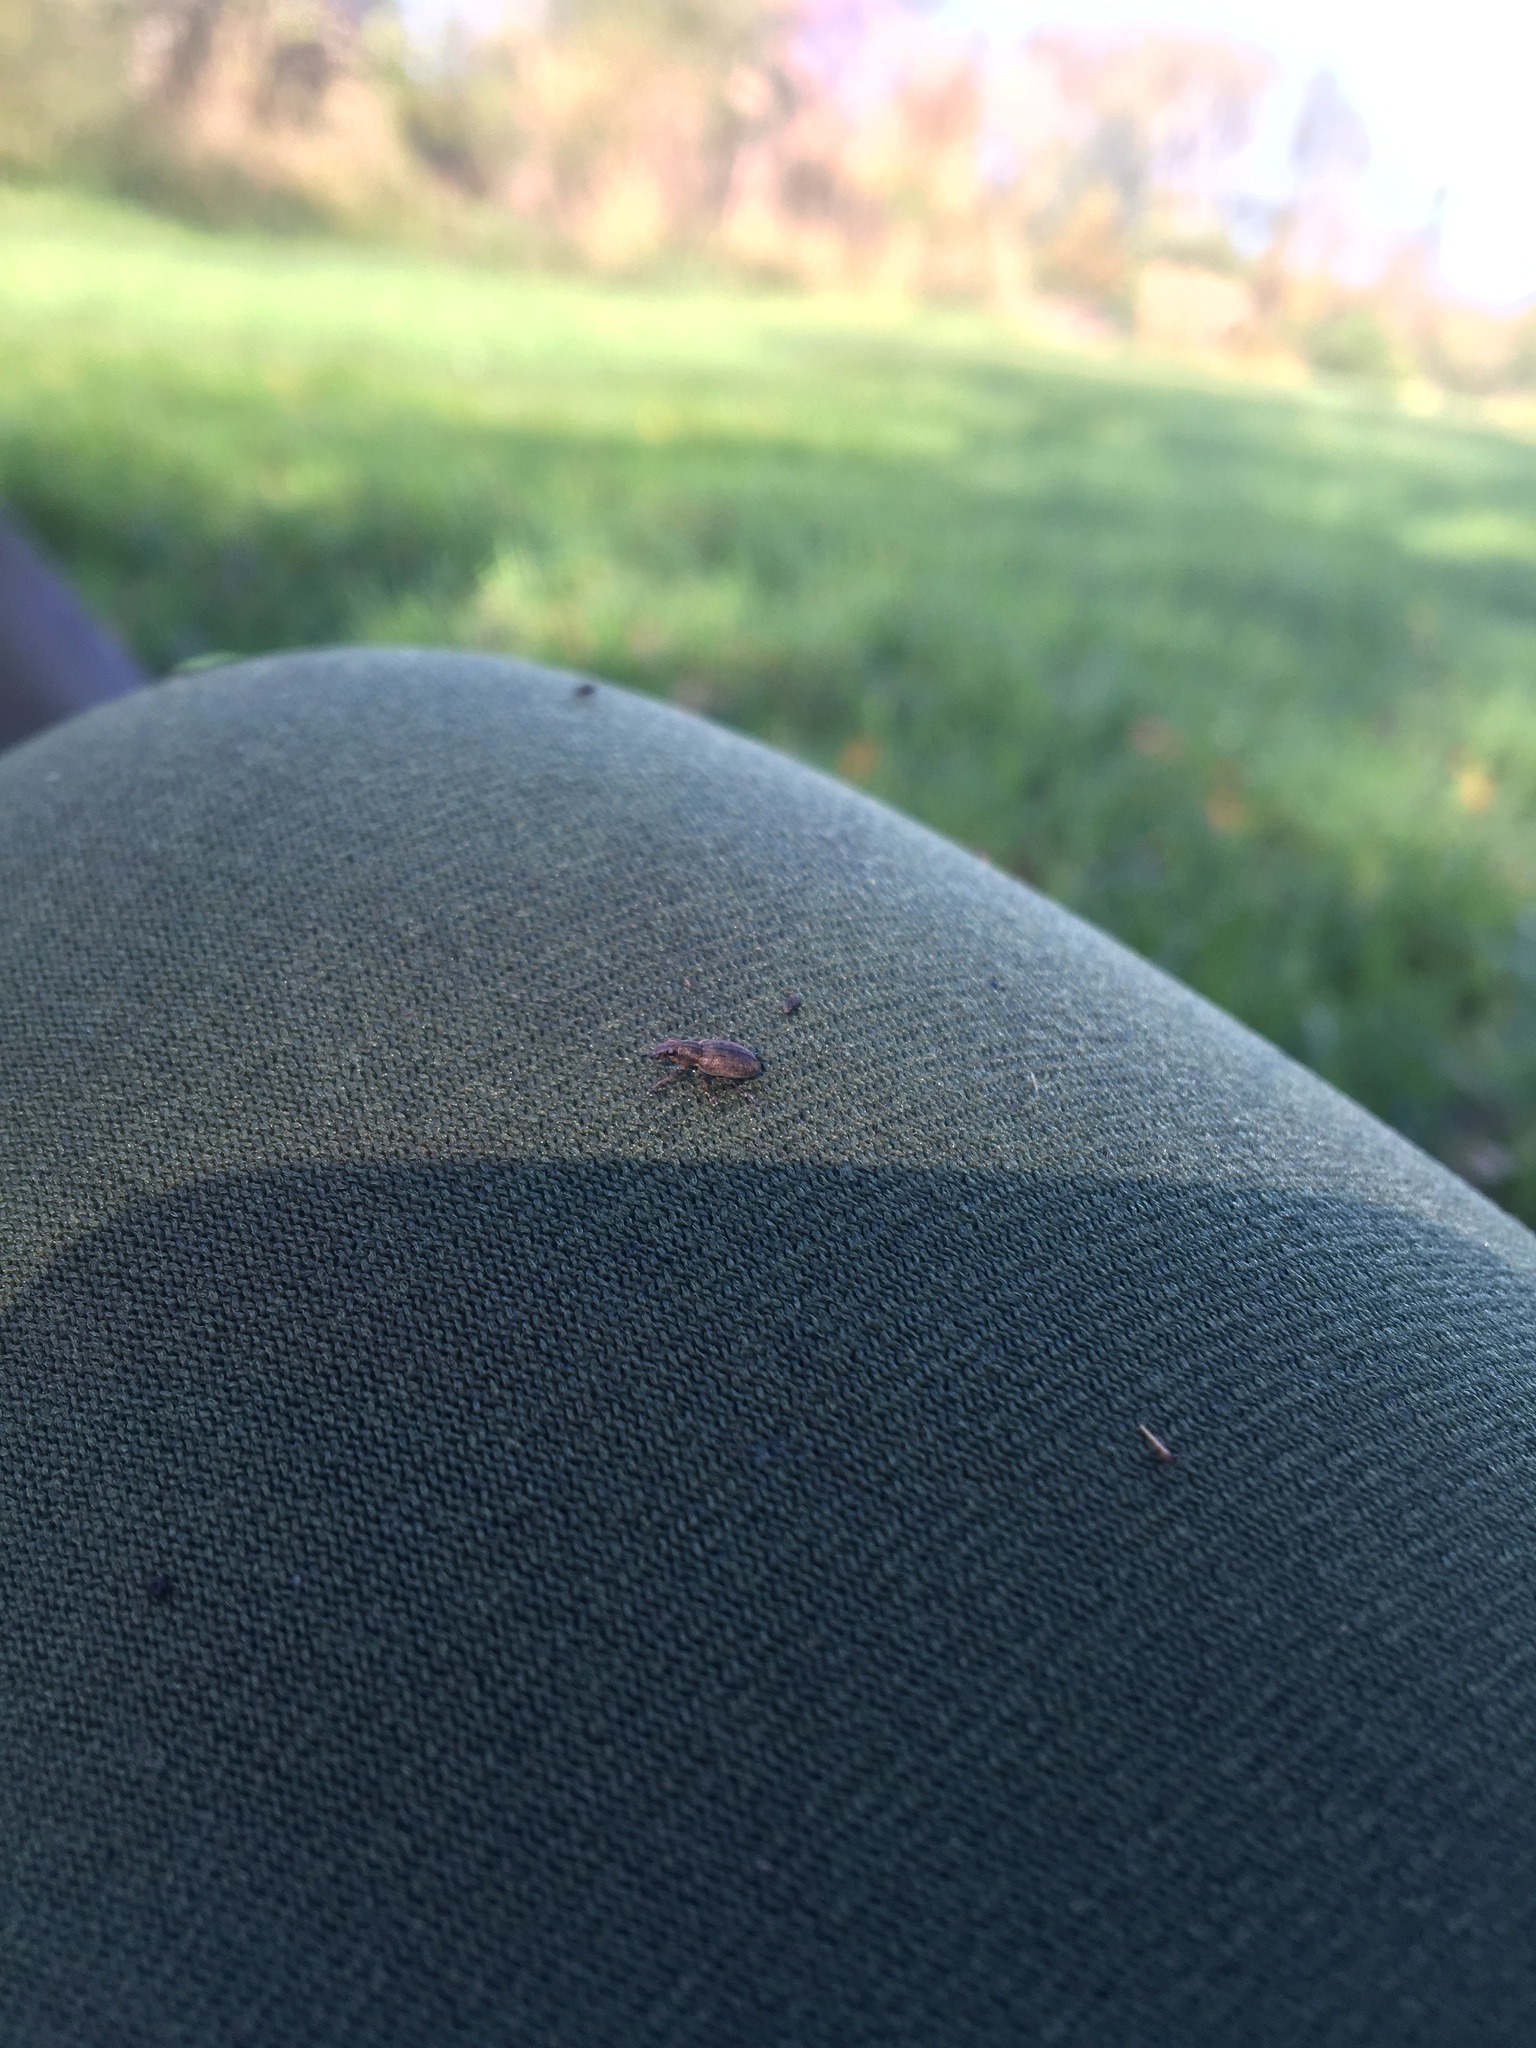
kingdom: Animalia
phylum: Arthropoda
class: Insecta
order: Coleoptera
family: Curculionidae
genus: Sitona
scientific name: Sitona obsoletus
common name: Weevil
